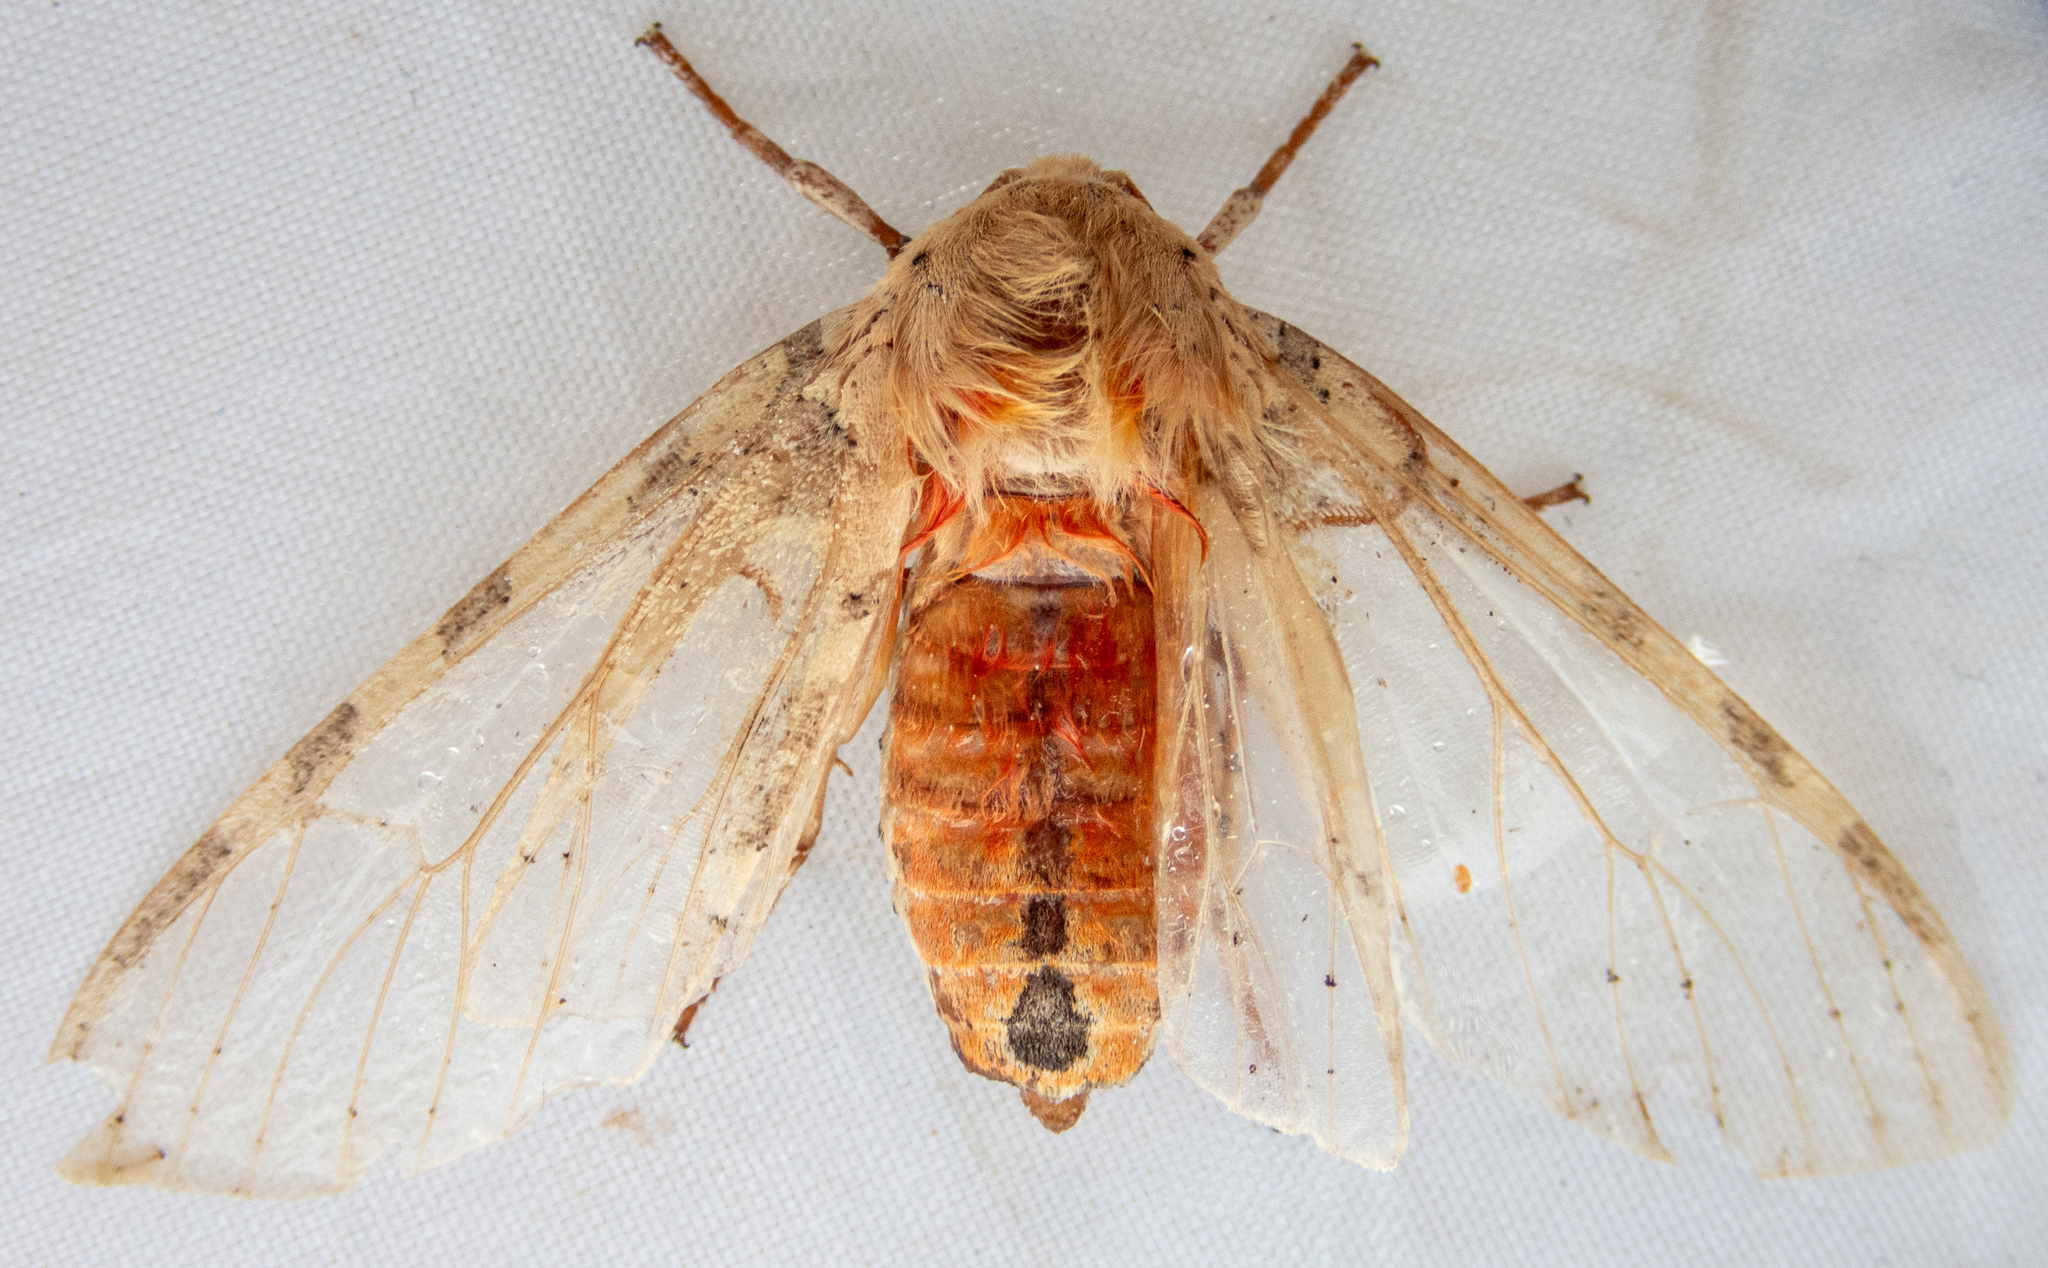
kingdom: Animalia
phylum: Arthropoda
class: Insecta
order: Lepidoptera
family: Erebidae
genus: Hemihyalea
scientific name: Hemihyalea edwardsii
